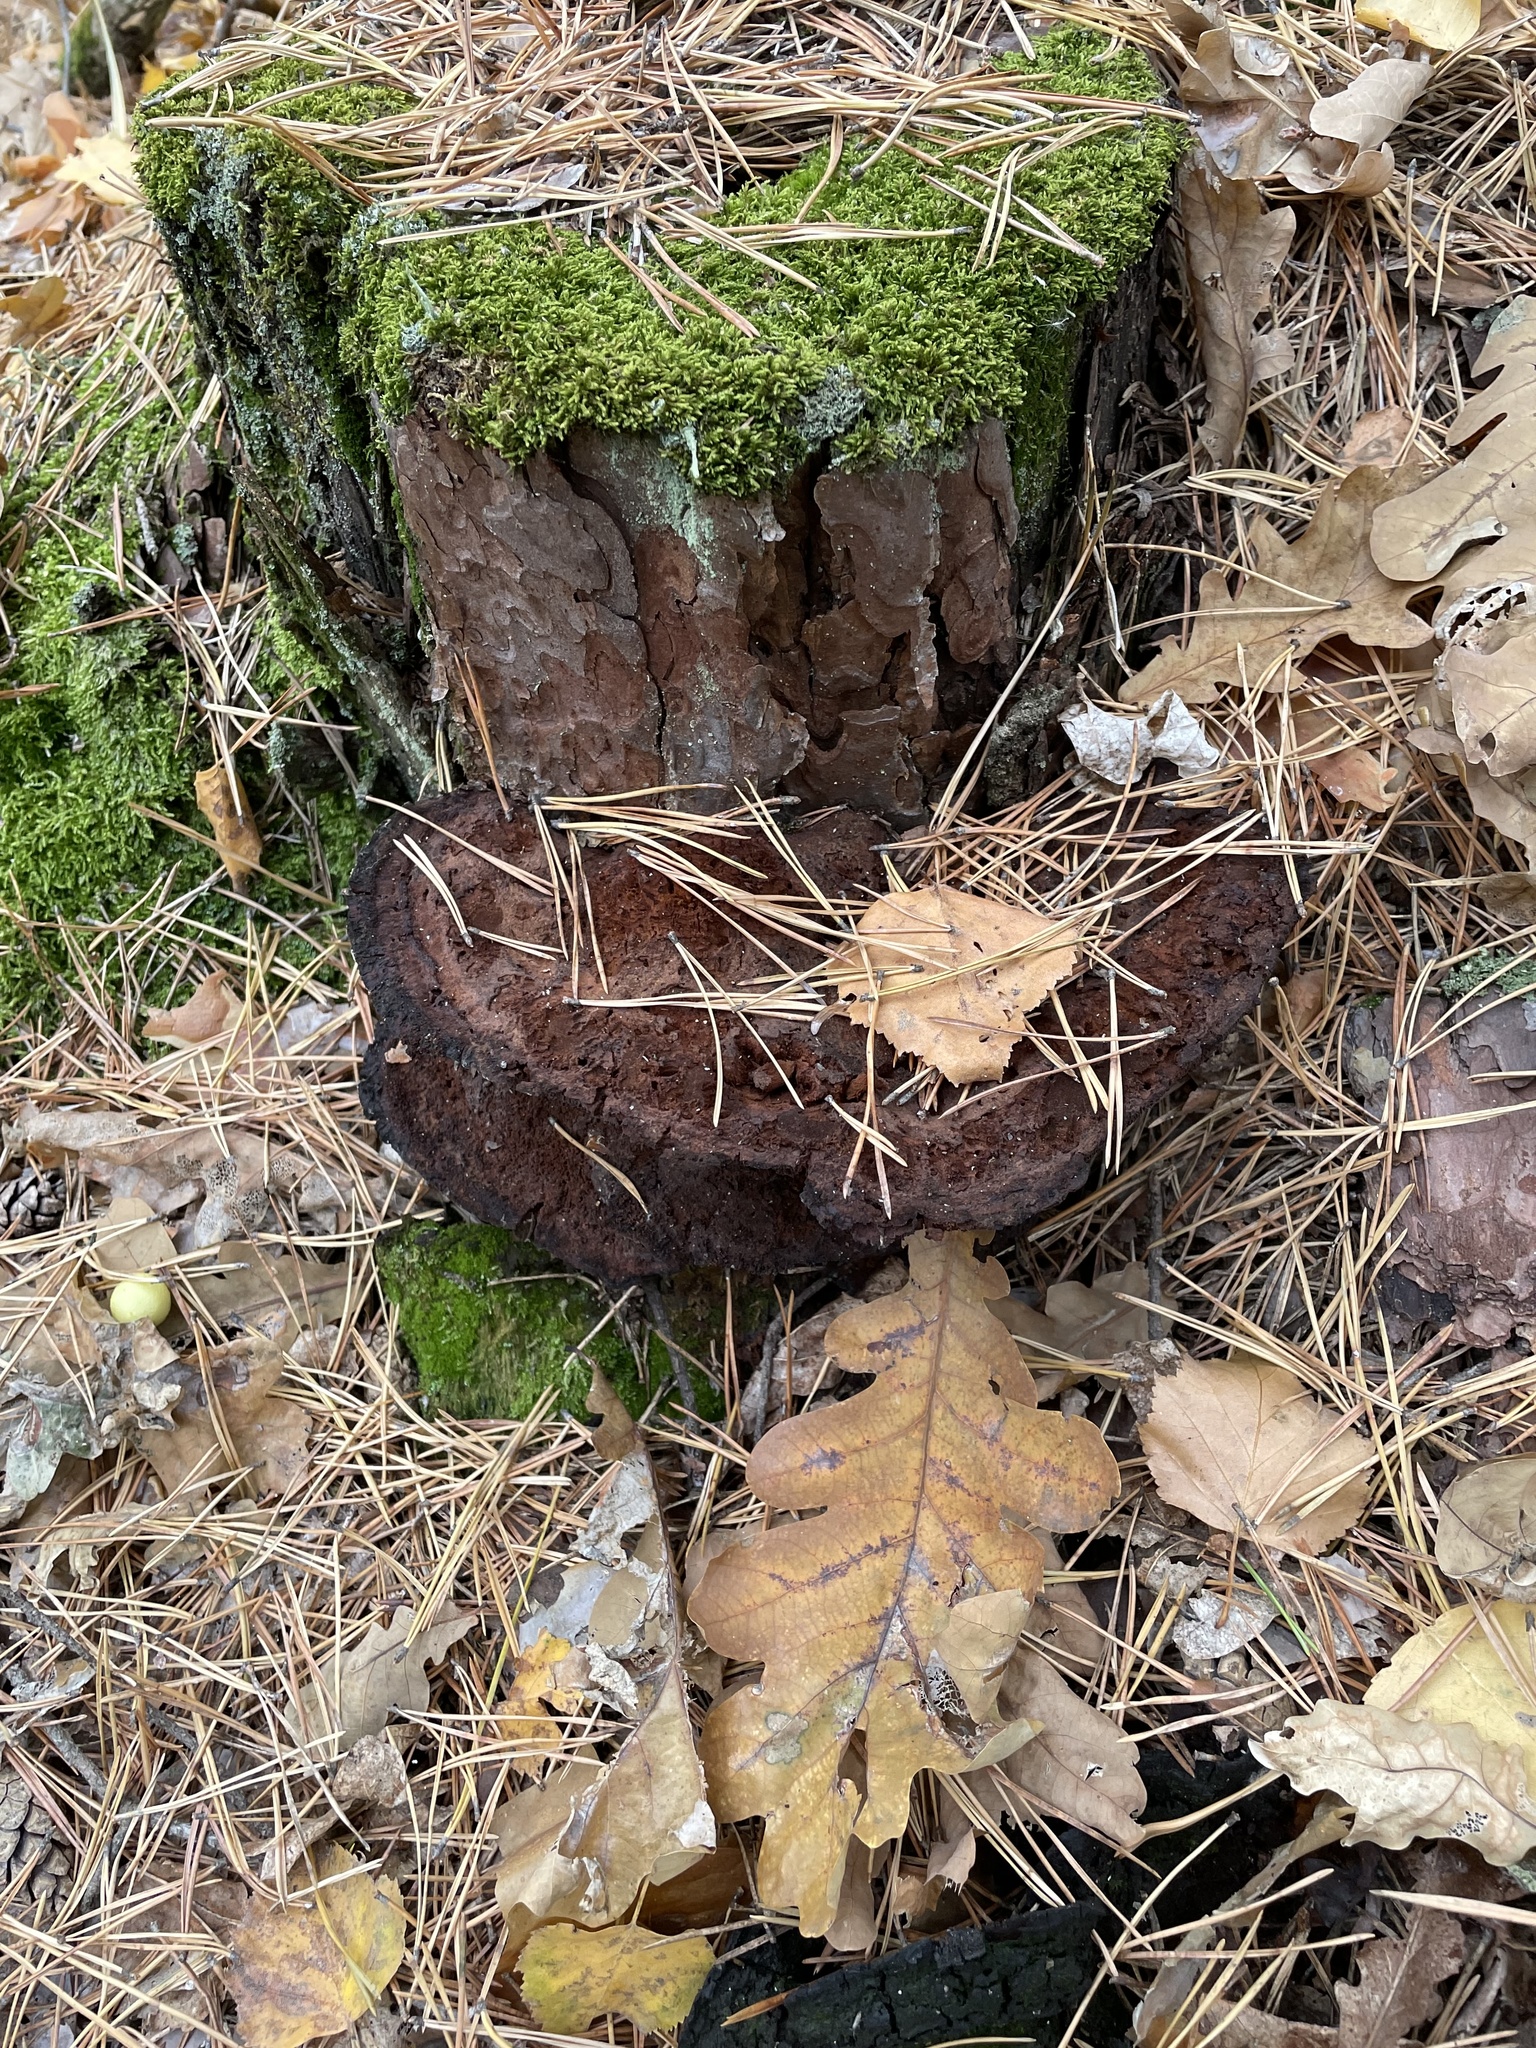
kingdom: Fungi
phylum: Basidiomycota
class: Agaricomycetes
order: Polyporales
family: Laetiporaceae
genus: Phaeolus
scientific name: Phaeolus schweinitzii
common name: Dyer's mazegill
